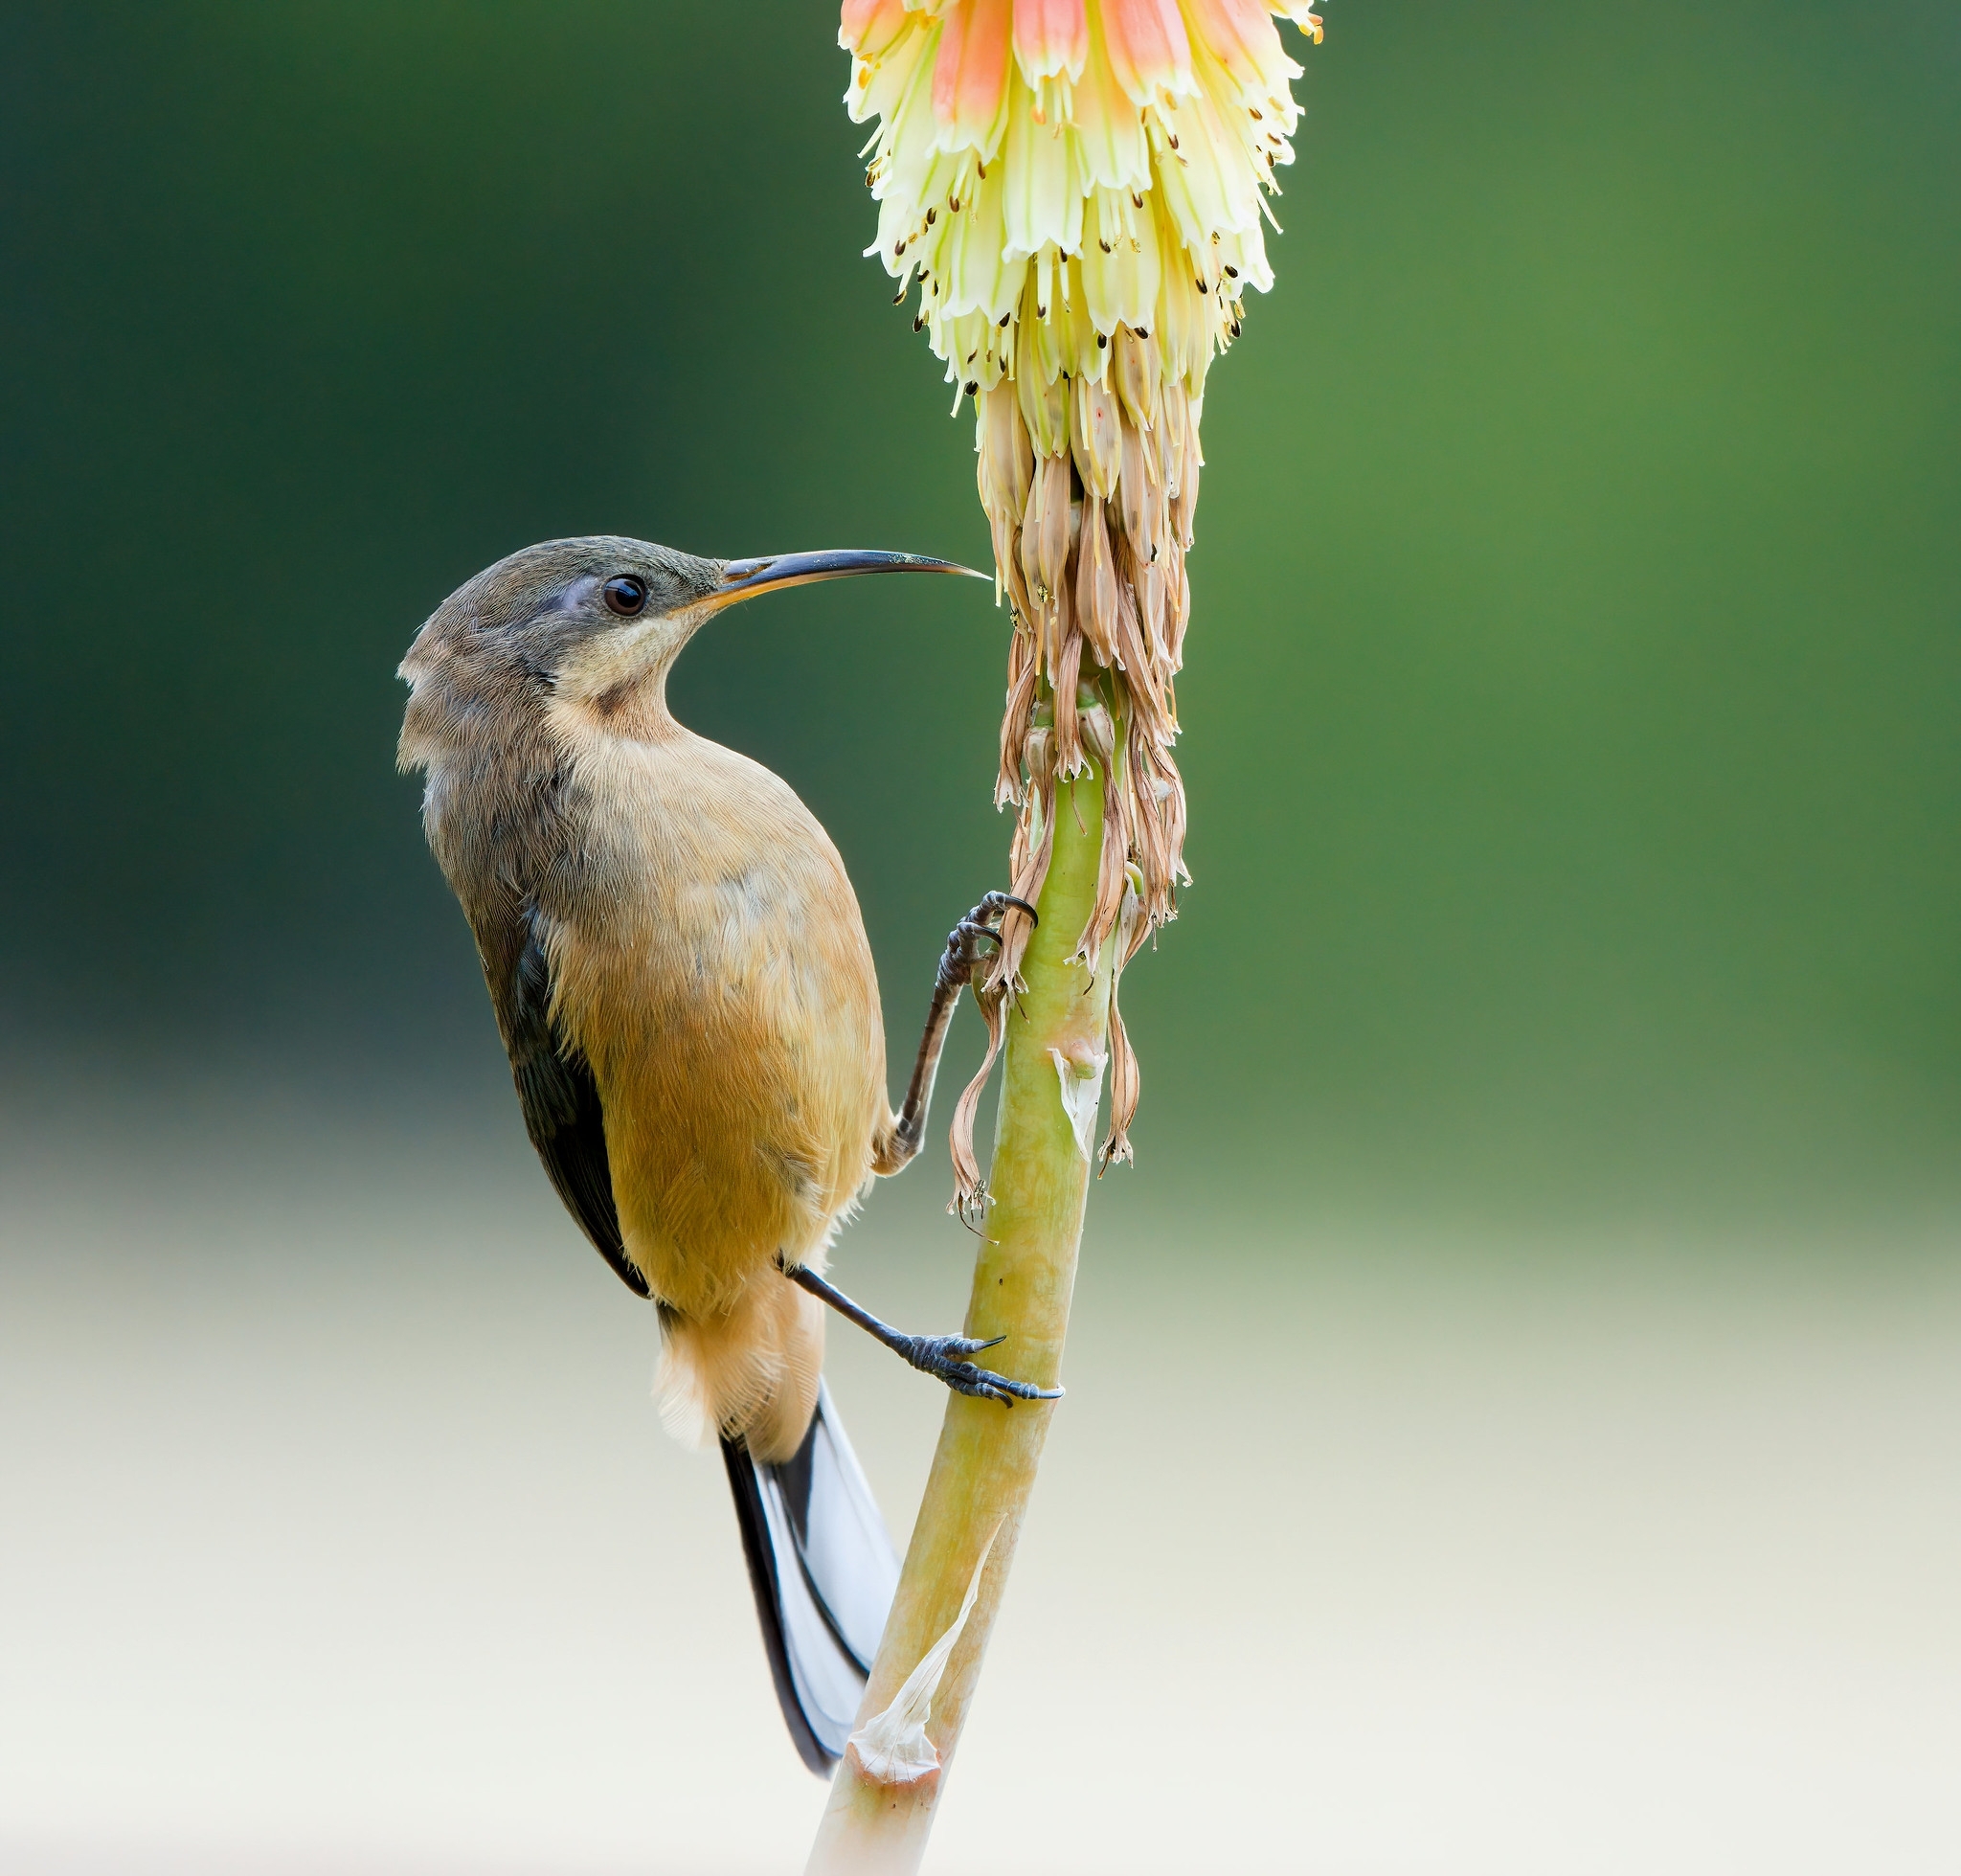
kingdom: Animalia
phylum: Chordata
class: Aves
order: Passeriformes
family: Meliphagidae
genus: Acanthorhynchus
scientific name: Acanthorhynchus tenuirostris
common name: Eastern spinebill
